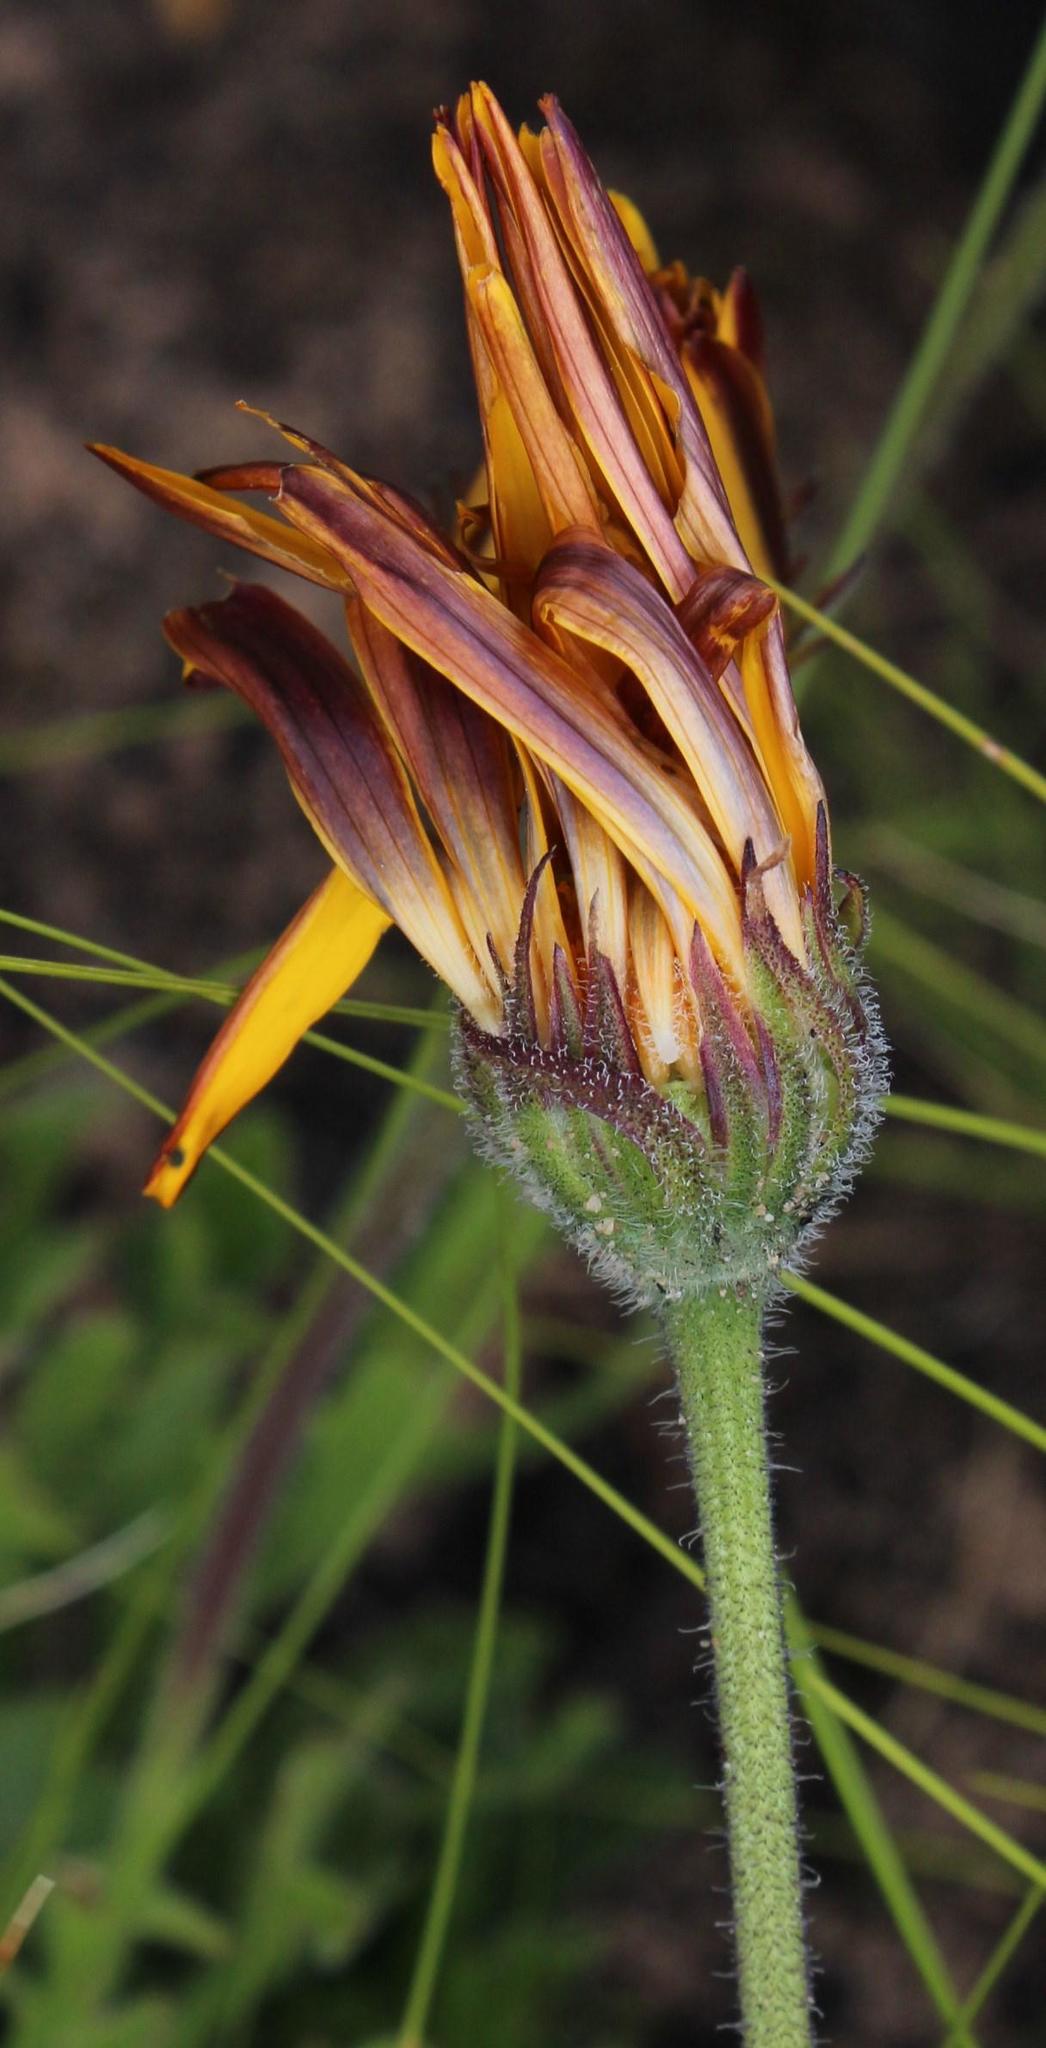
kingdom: Plantae
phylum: Tracheophyta
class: Magnoliopsida
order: Asterales
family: Asteraceae
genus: Dimorphotheca
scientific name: Dimorphotheca nudicaulis
